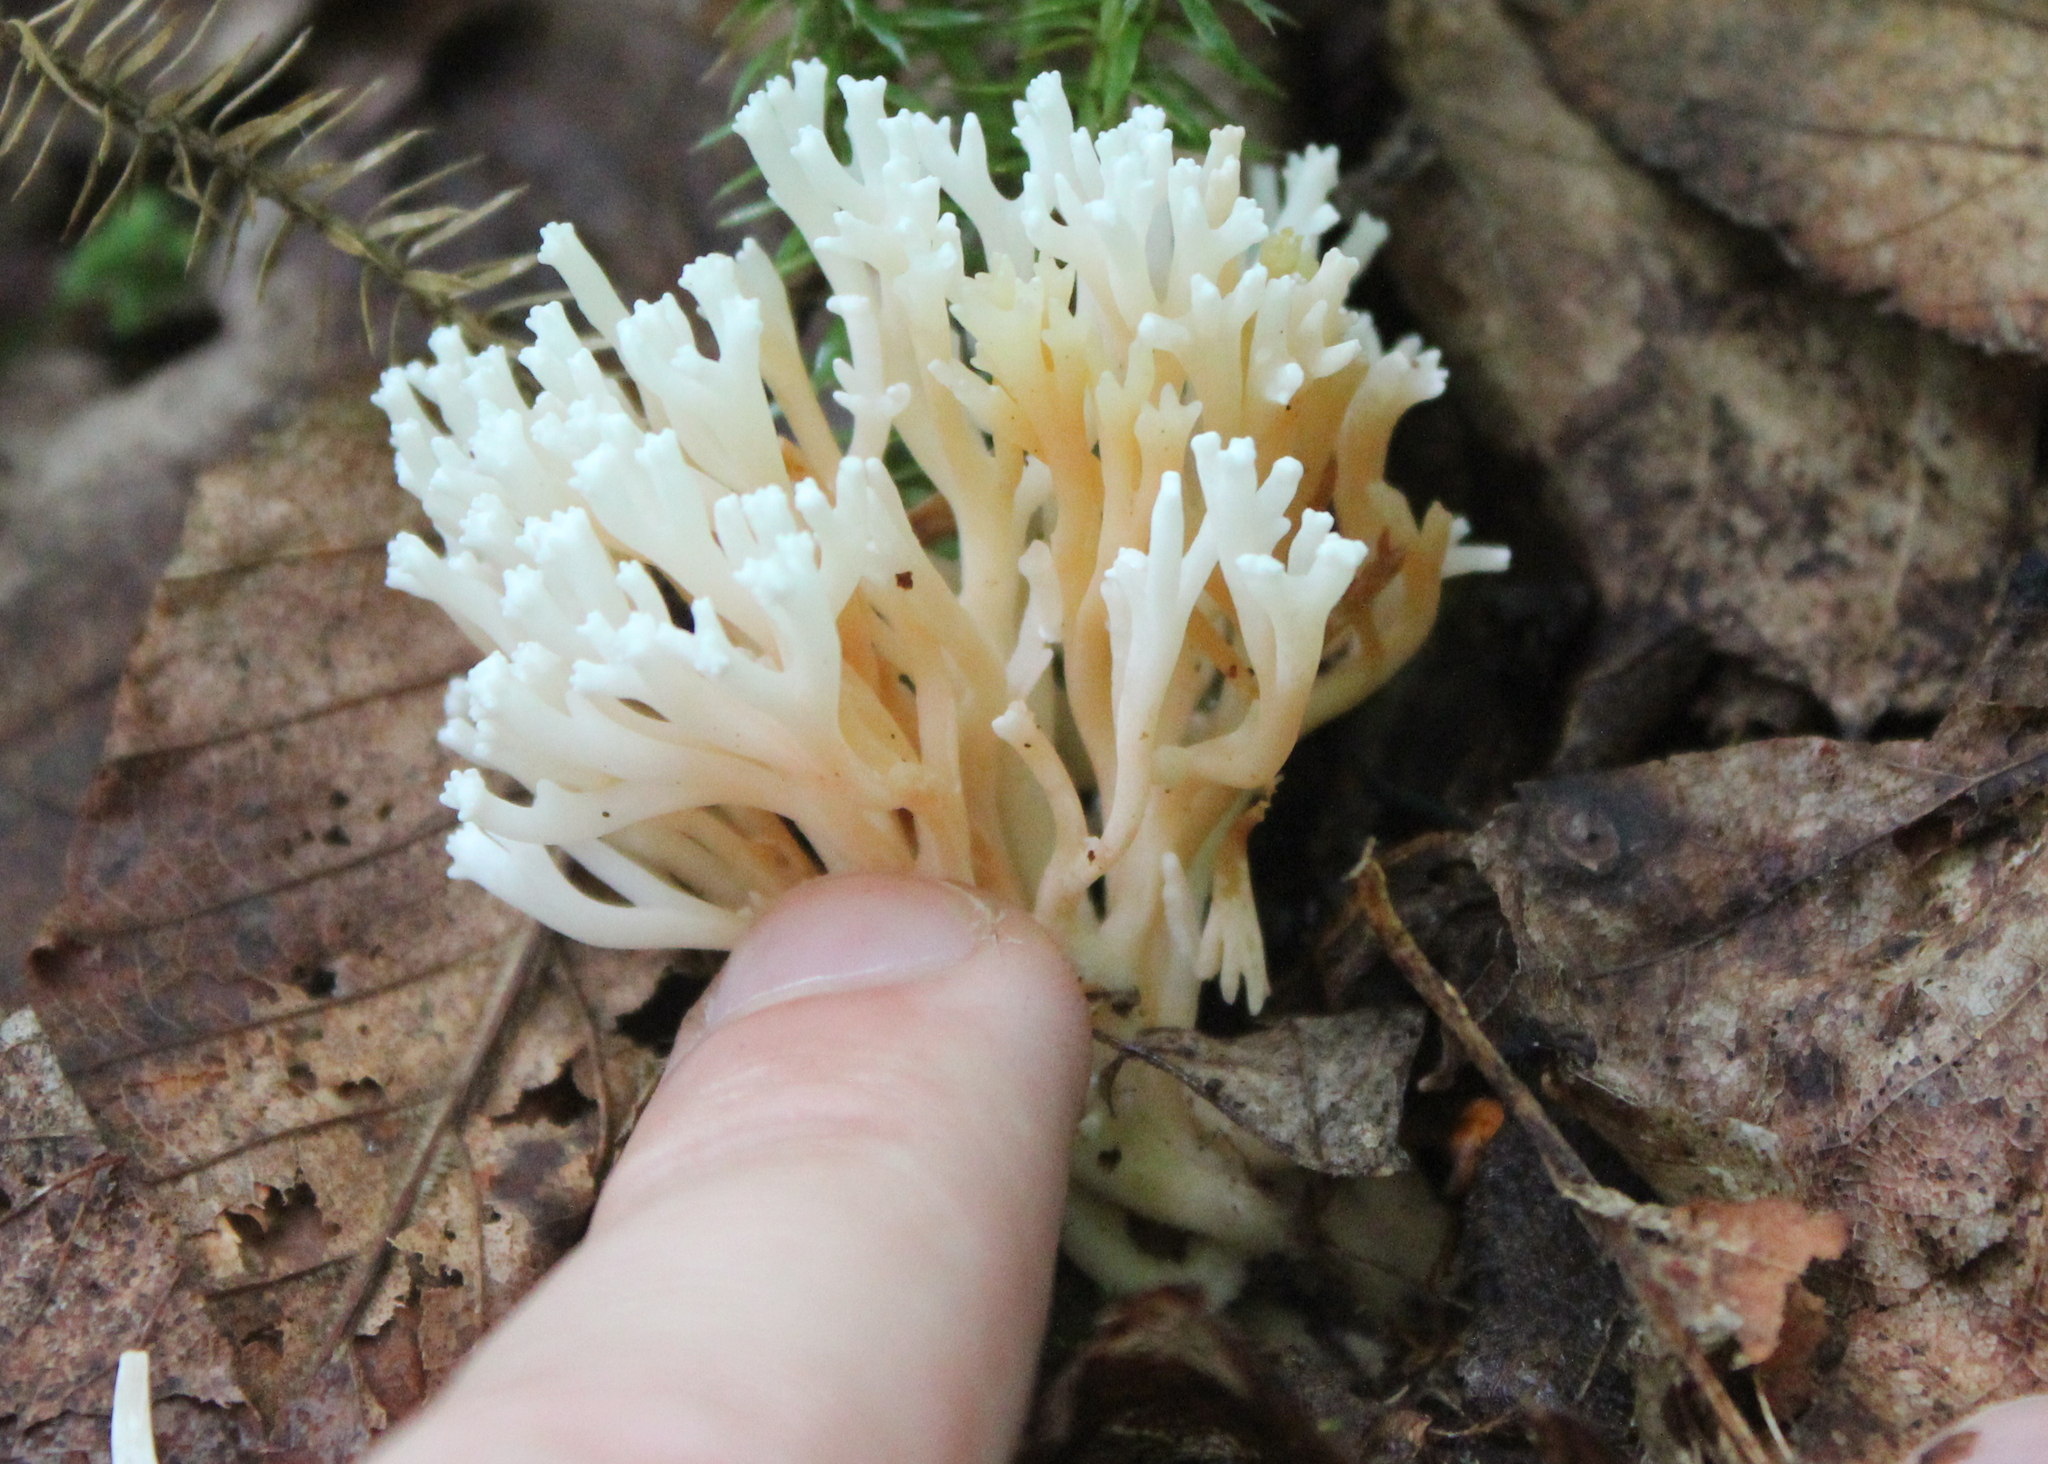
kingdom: Fungi
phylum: Basidiomycota
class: Agaricomycetes
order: Agaricales
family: Clavariaceae
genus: Ramariopsis
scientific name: Ramariopsis kunzei
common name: Ivory coral
